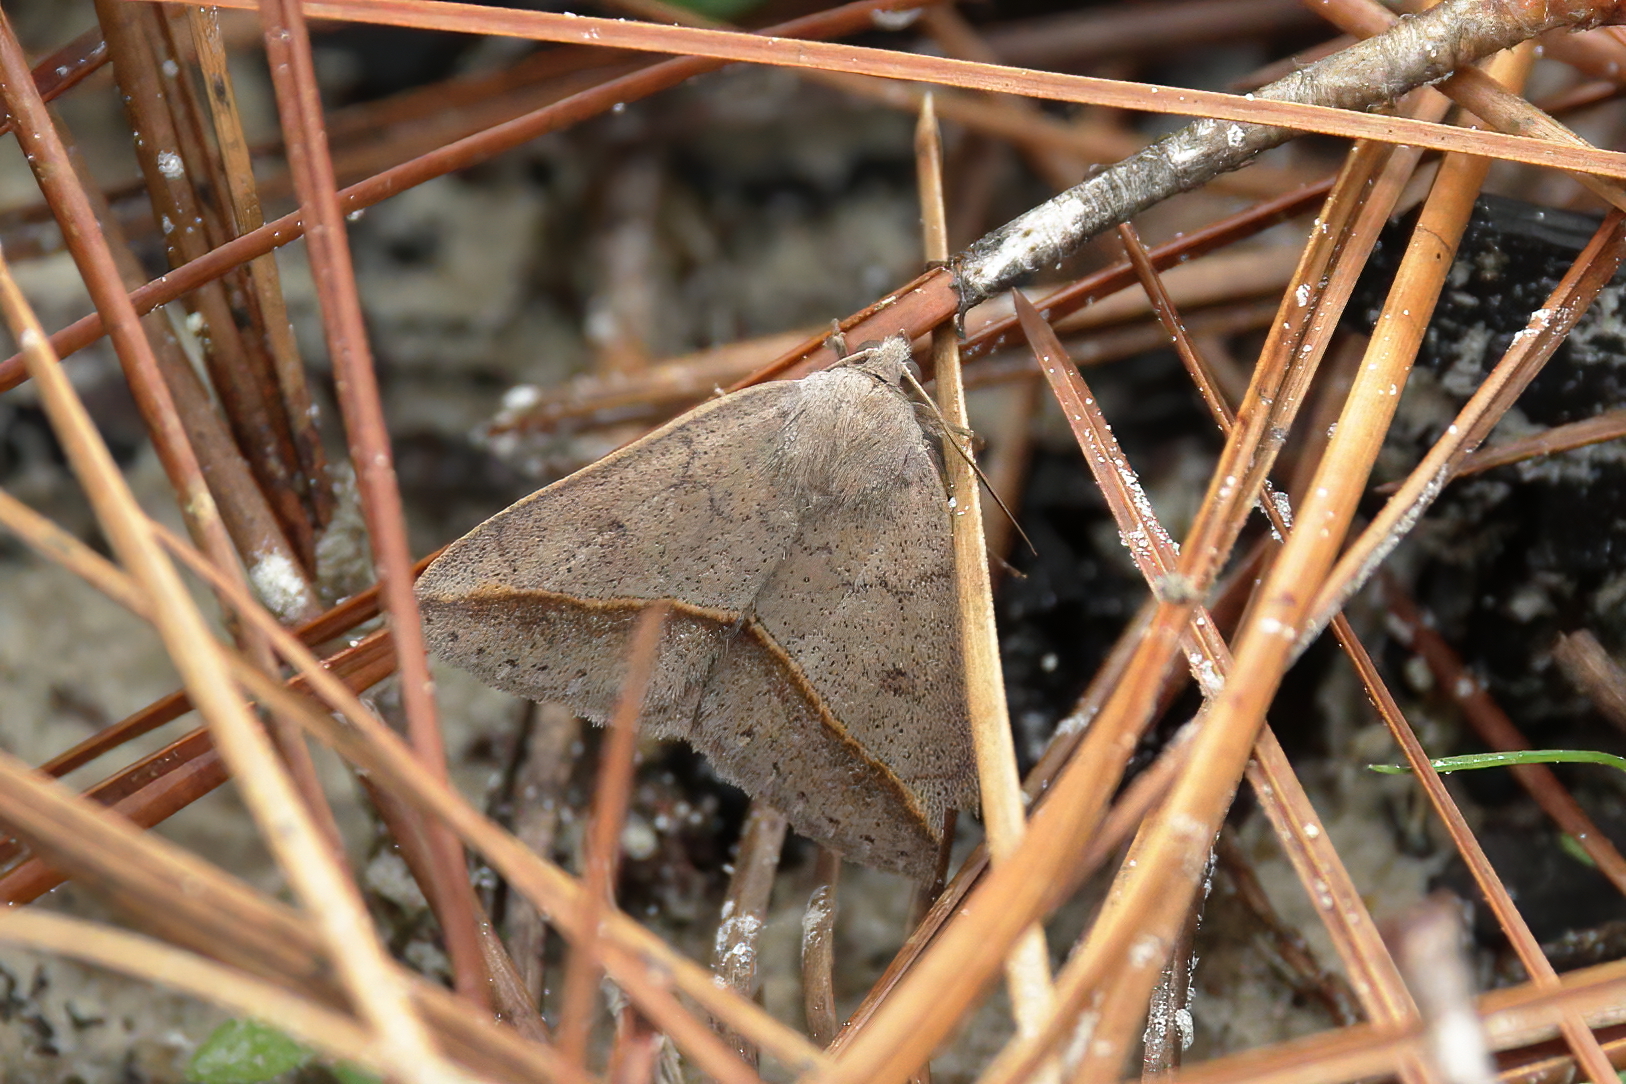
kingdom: Animalia
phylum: Arthropoda
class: Insecta
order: Lepidoptera
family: Erebidae
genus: Argyrostrotis
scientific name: Argyrostrotis flavistriaria
